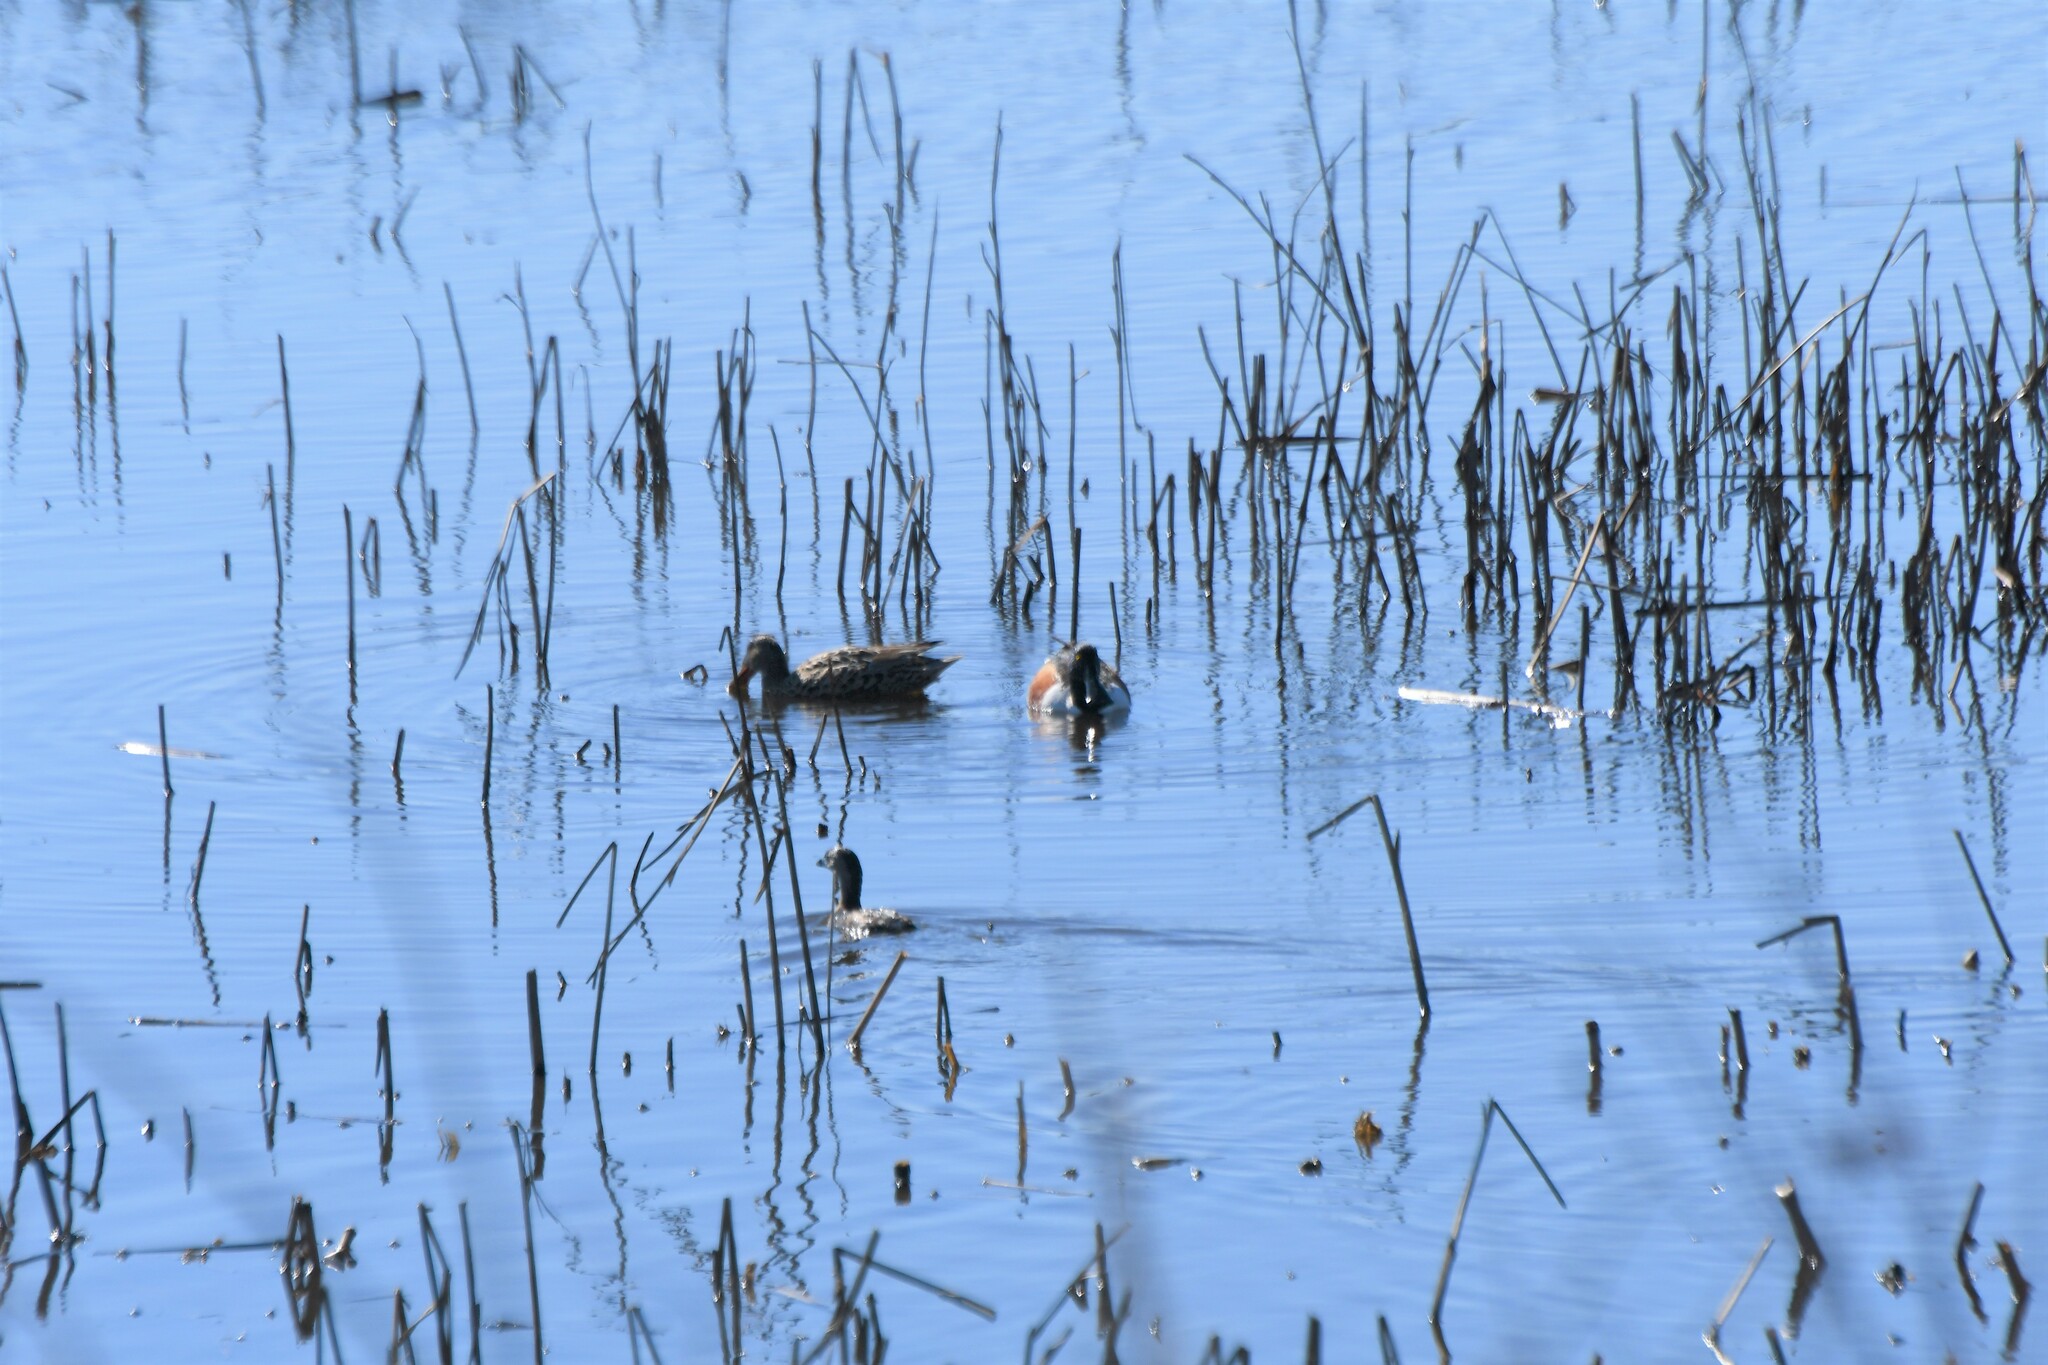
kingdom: Animalia
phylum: Chordata
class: Aves
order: Anseriformes
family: Anatidae
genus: Spatula
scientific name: Spatula clypeata
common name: Northern shoveler
